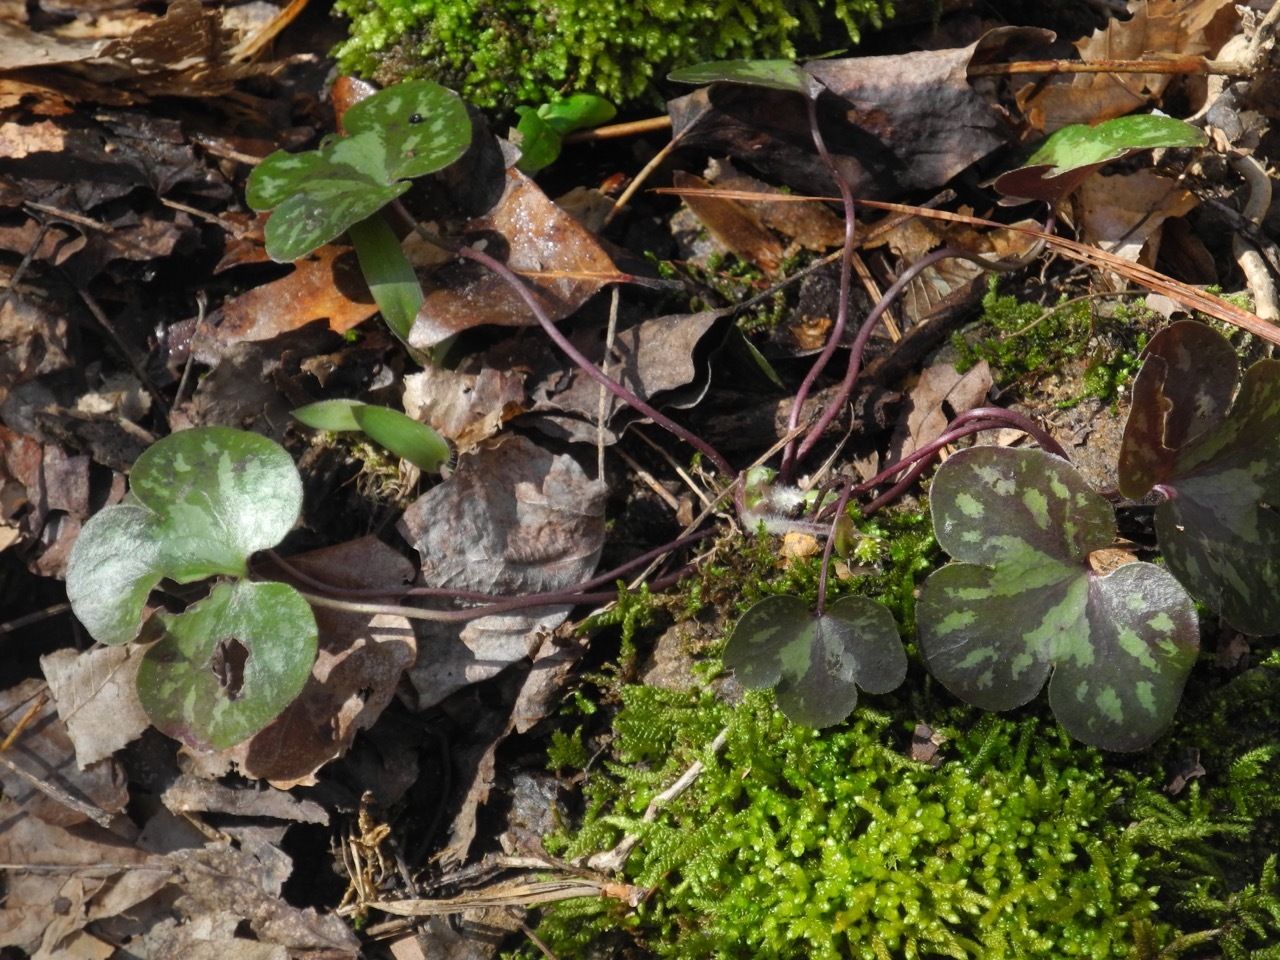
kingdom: Plantae
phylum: Tracheophyta
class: Magnoliopsida
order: Ranunculales
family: Ranunculaceae
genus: Hepatica
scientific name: Hepatica americana
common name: American hepatica
